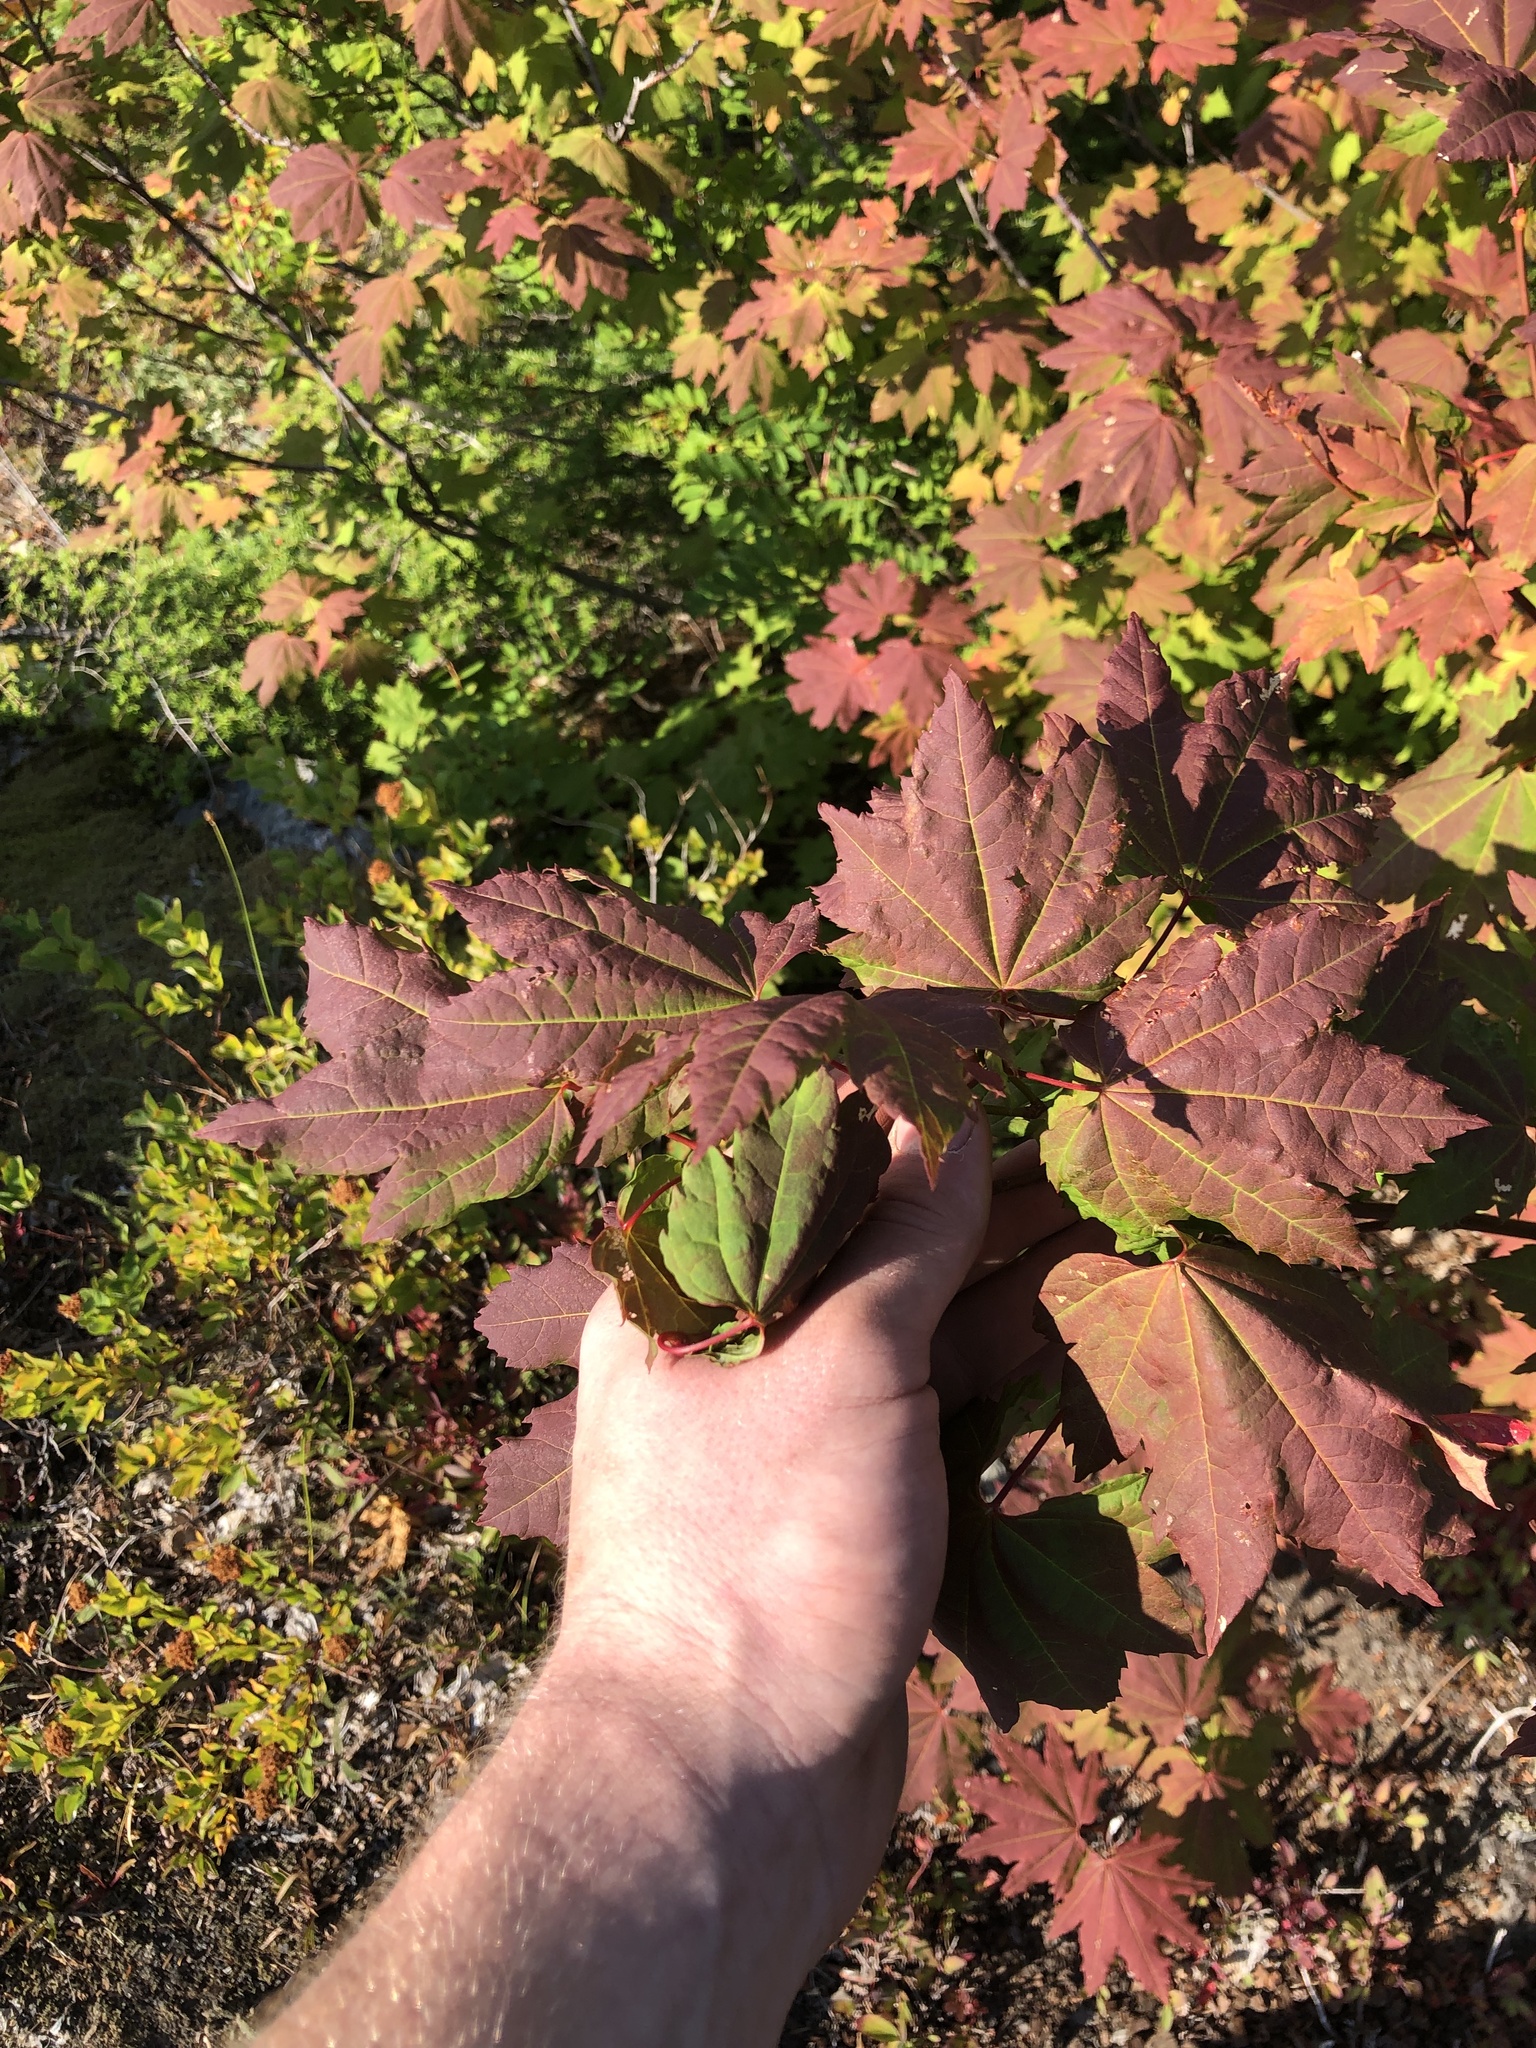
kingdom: Plantae
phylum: Tracheophyta
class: Magnoliopsida
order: Sapindales
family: Sapindaceae
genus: Acer
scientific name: Acer circinatum
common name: Vine maple
